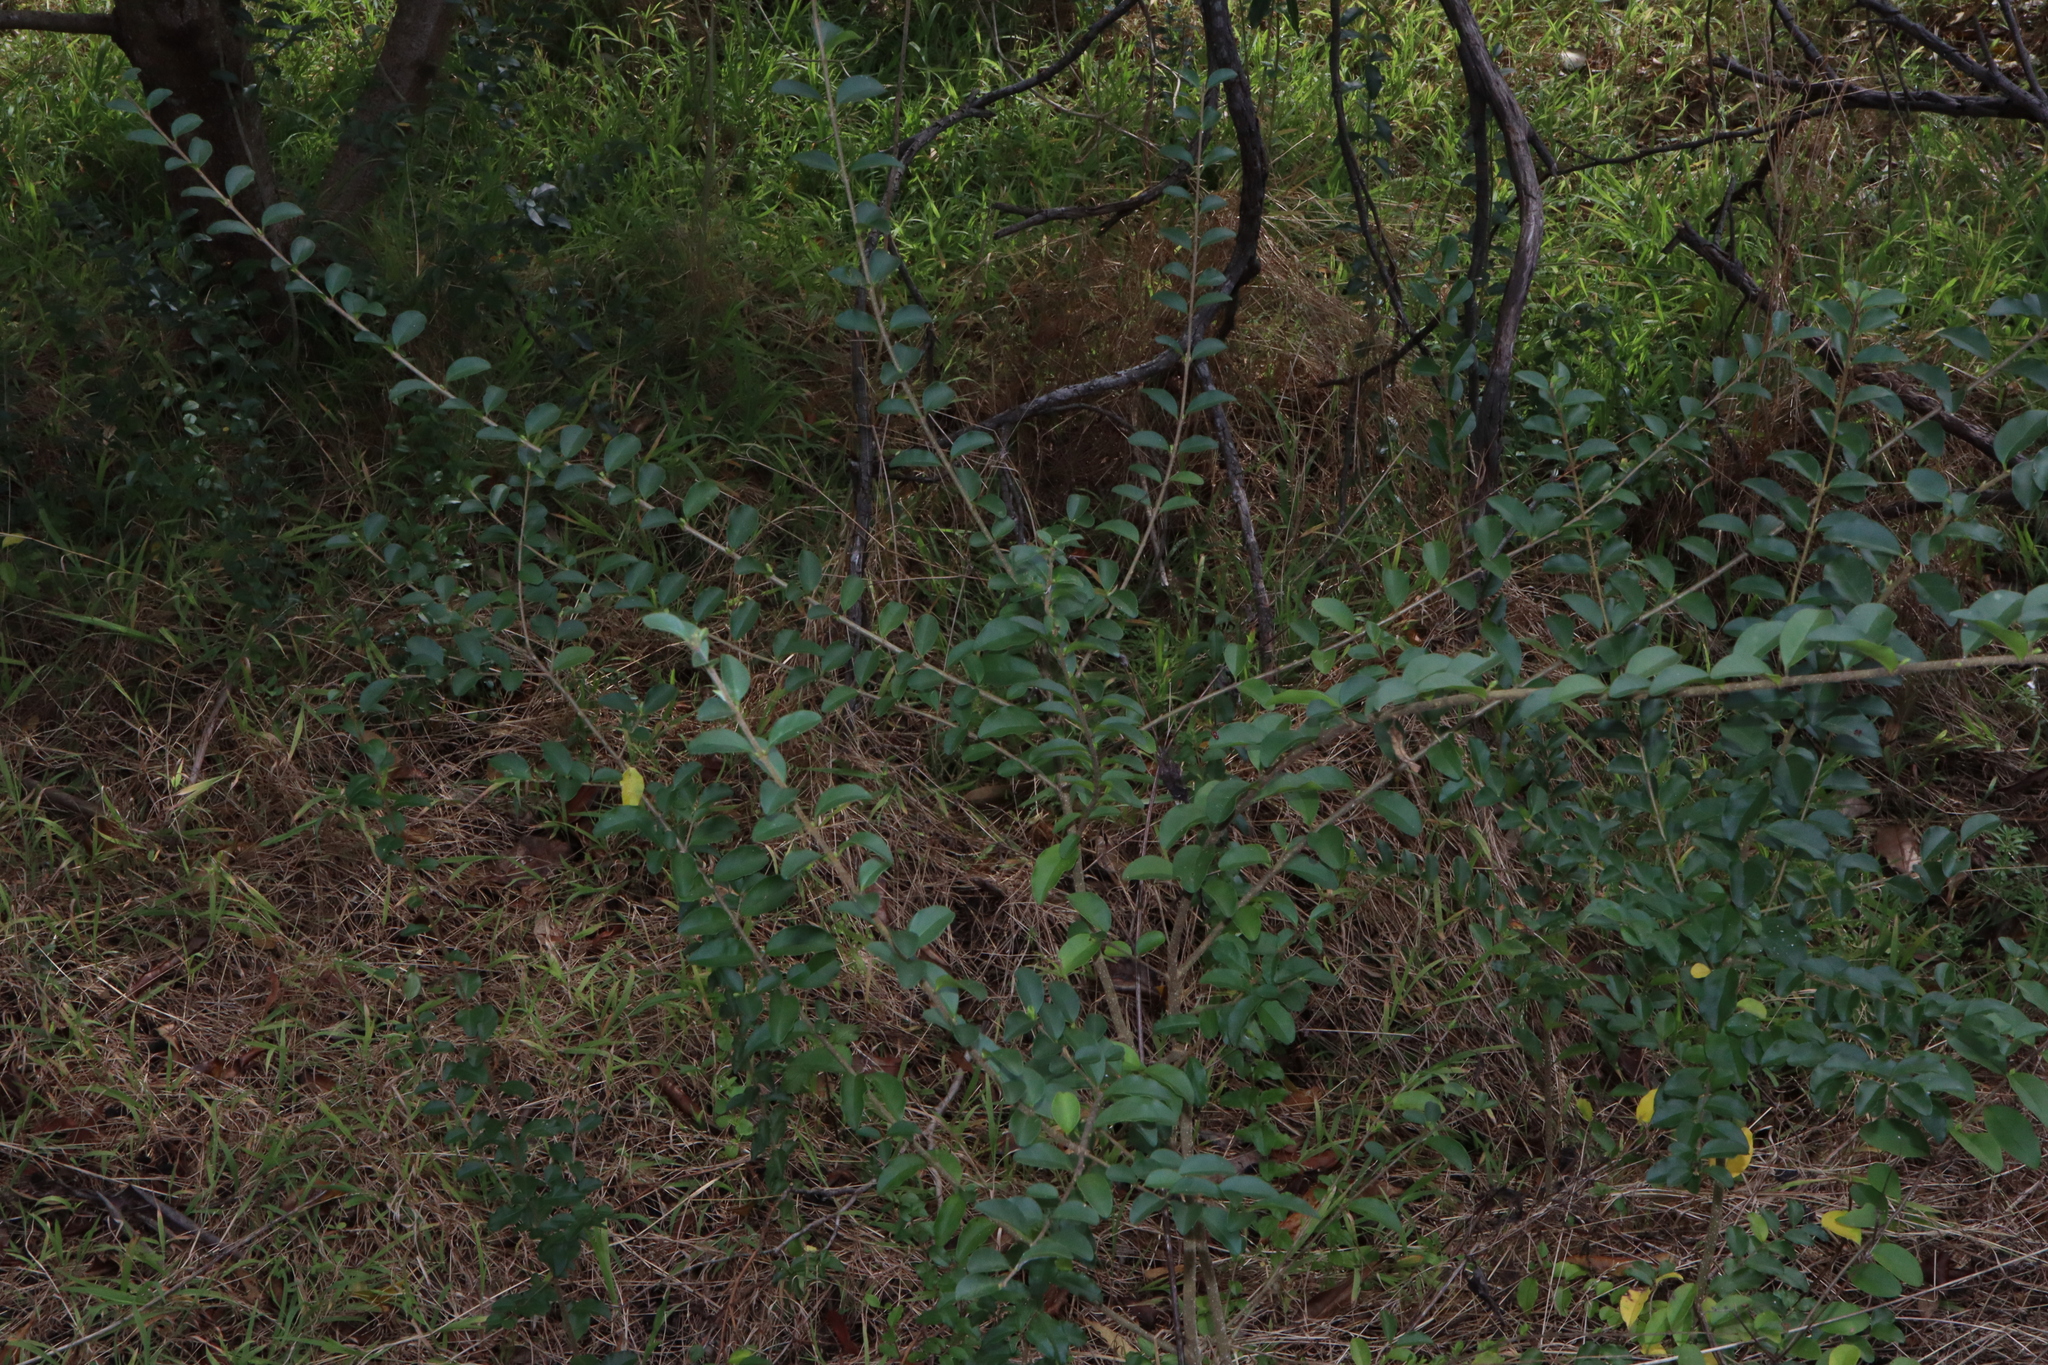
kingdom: Plantae
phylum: Tracheophyta
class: Magnoliopsida
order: Lamiales
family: Oleaceae
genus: Ligustrum
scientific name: Ligustrum sinense
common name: Chinese privet
